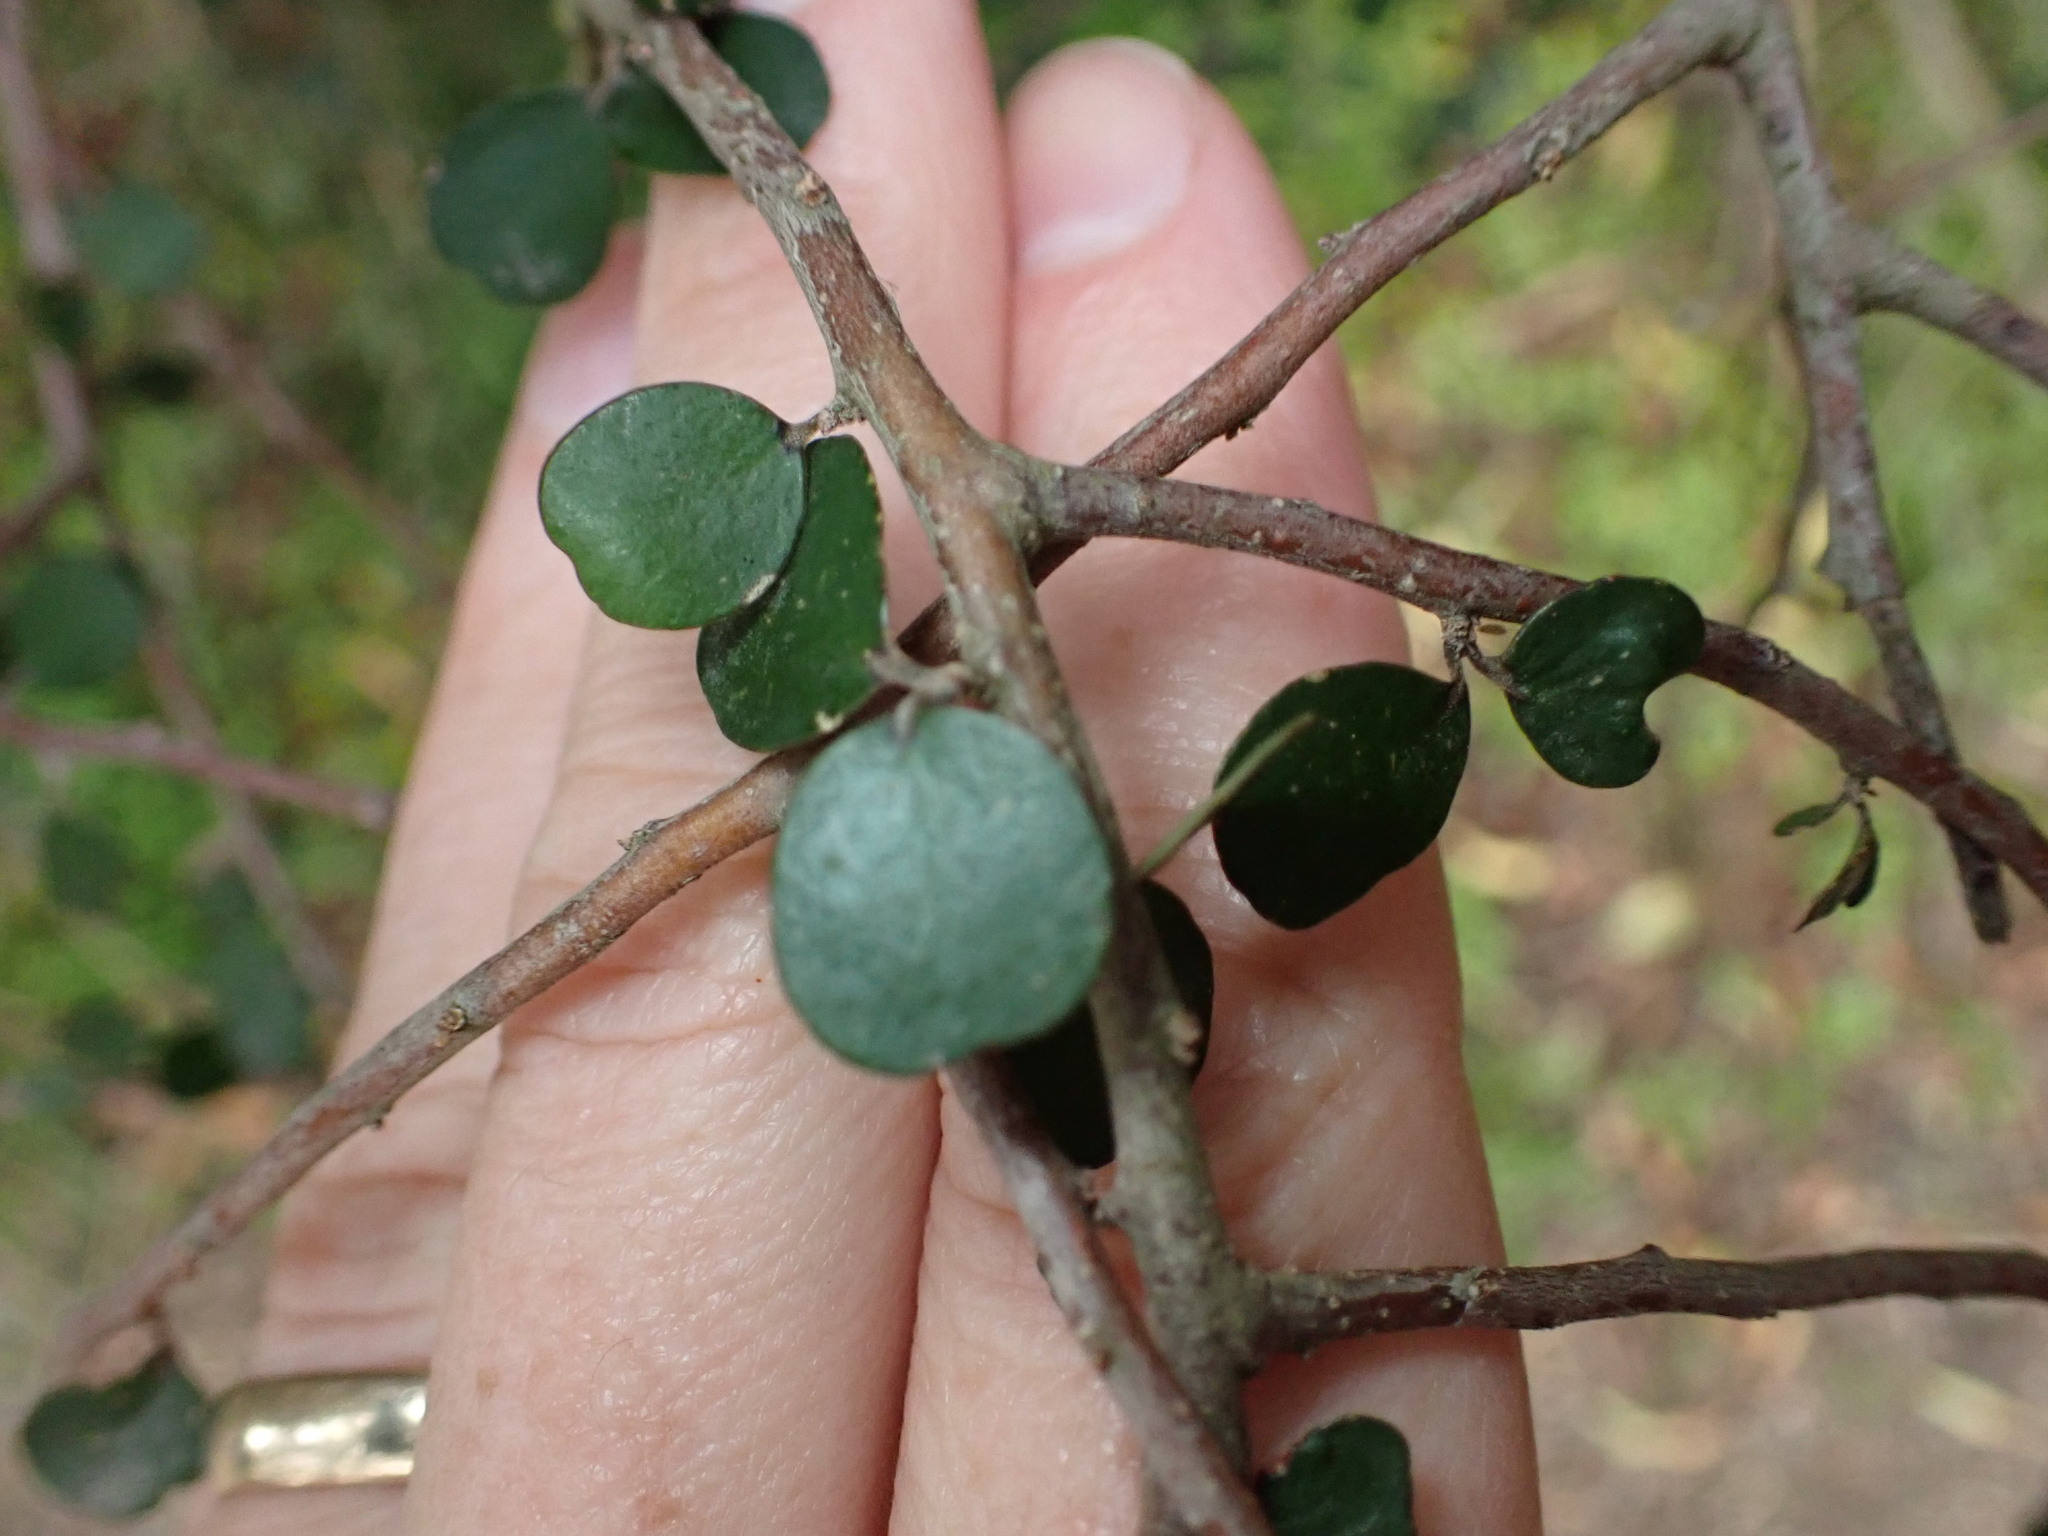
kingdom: Plantae
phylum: Tracheophyta
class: Magnoliopsida
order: Ericales
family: Primulaceae
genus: Myrsine
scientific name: Myrsine divaricata
